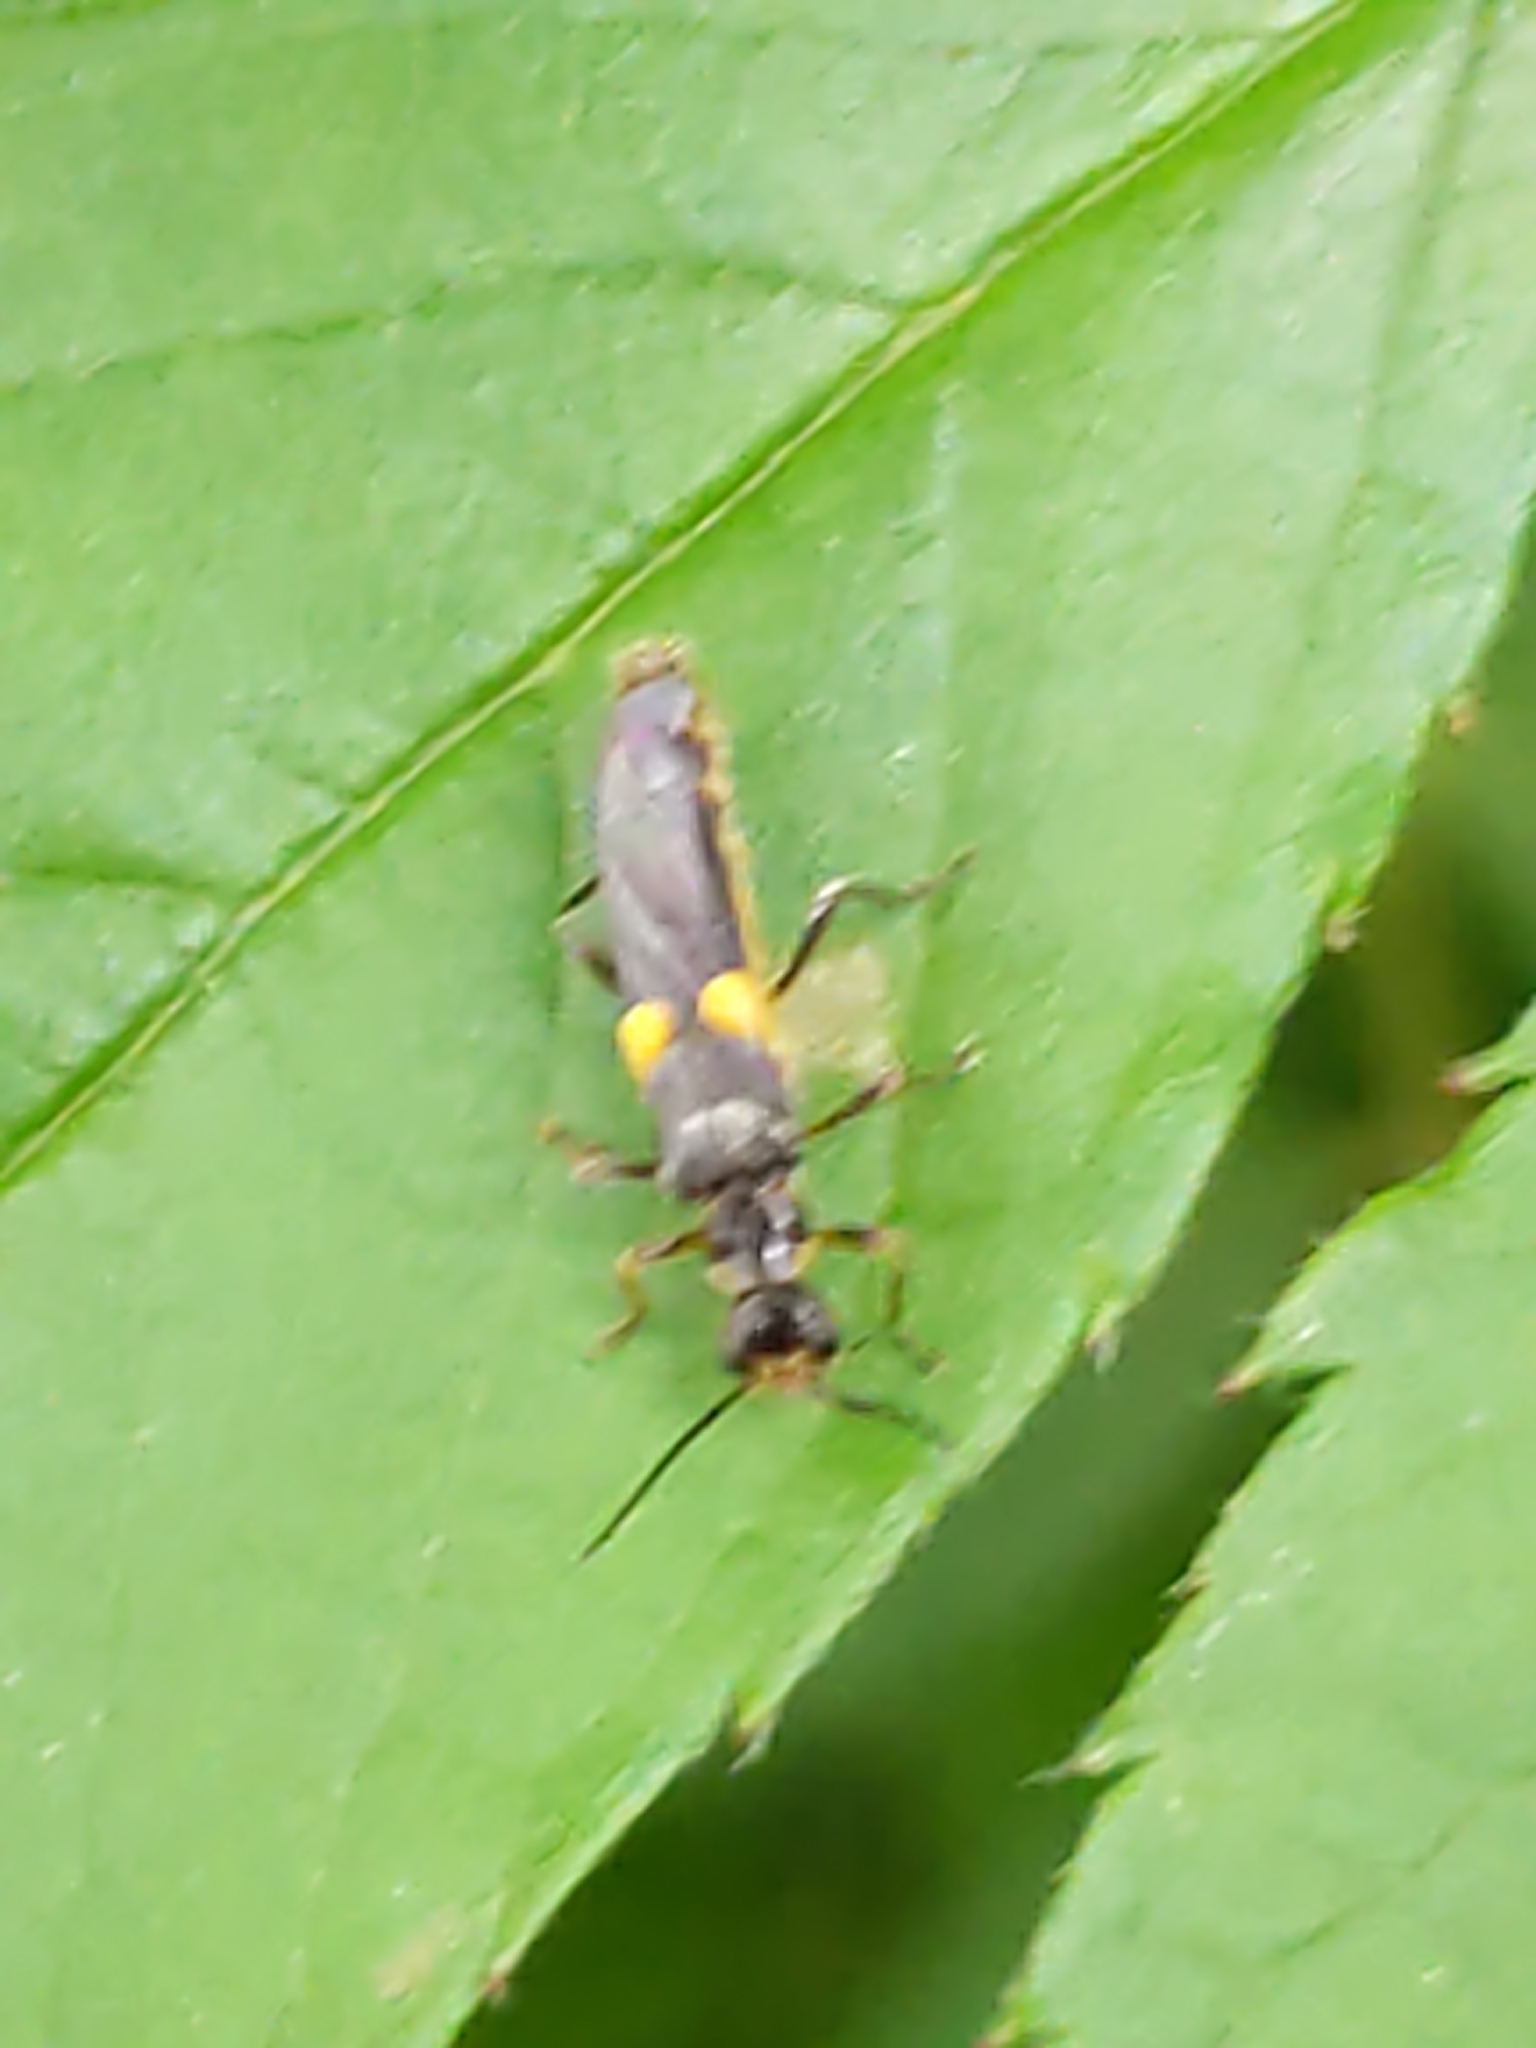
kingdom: Animalia
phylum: Arthropoda
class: Insecta
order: Coleoptera
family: Cantharidae
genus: Trypherus
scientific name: Trypherus
